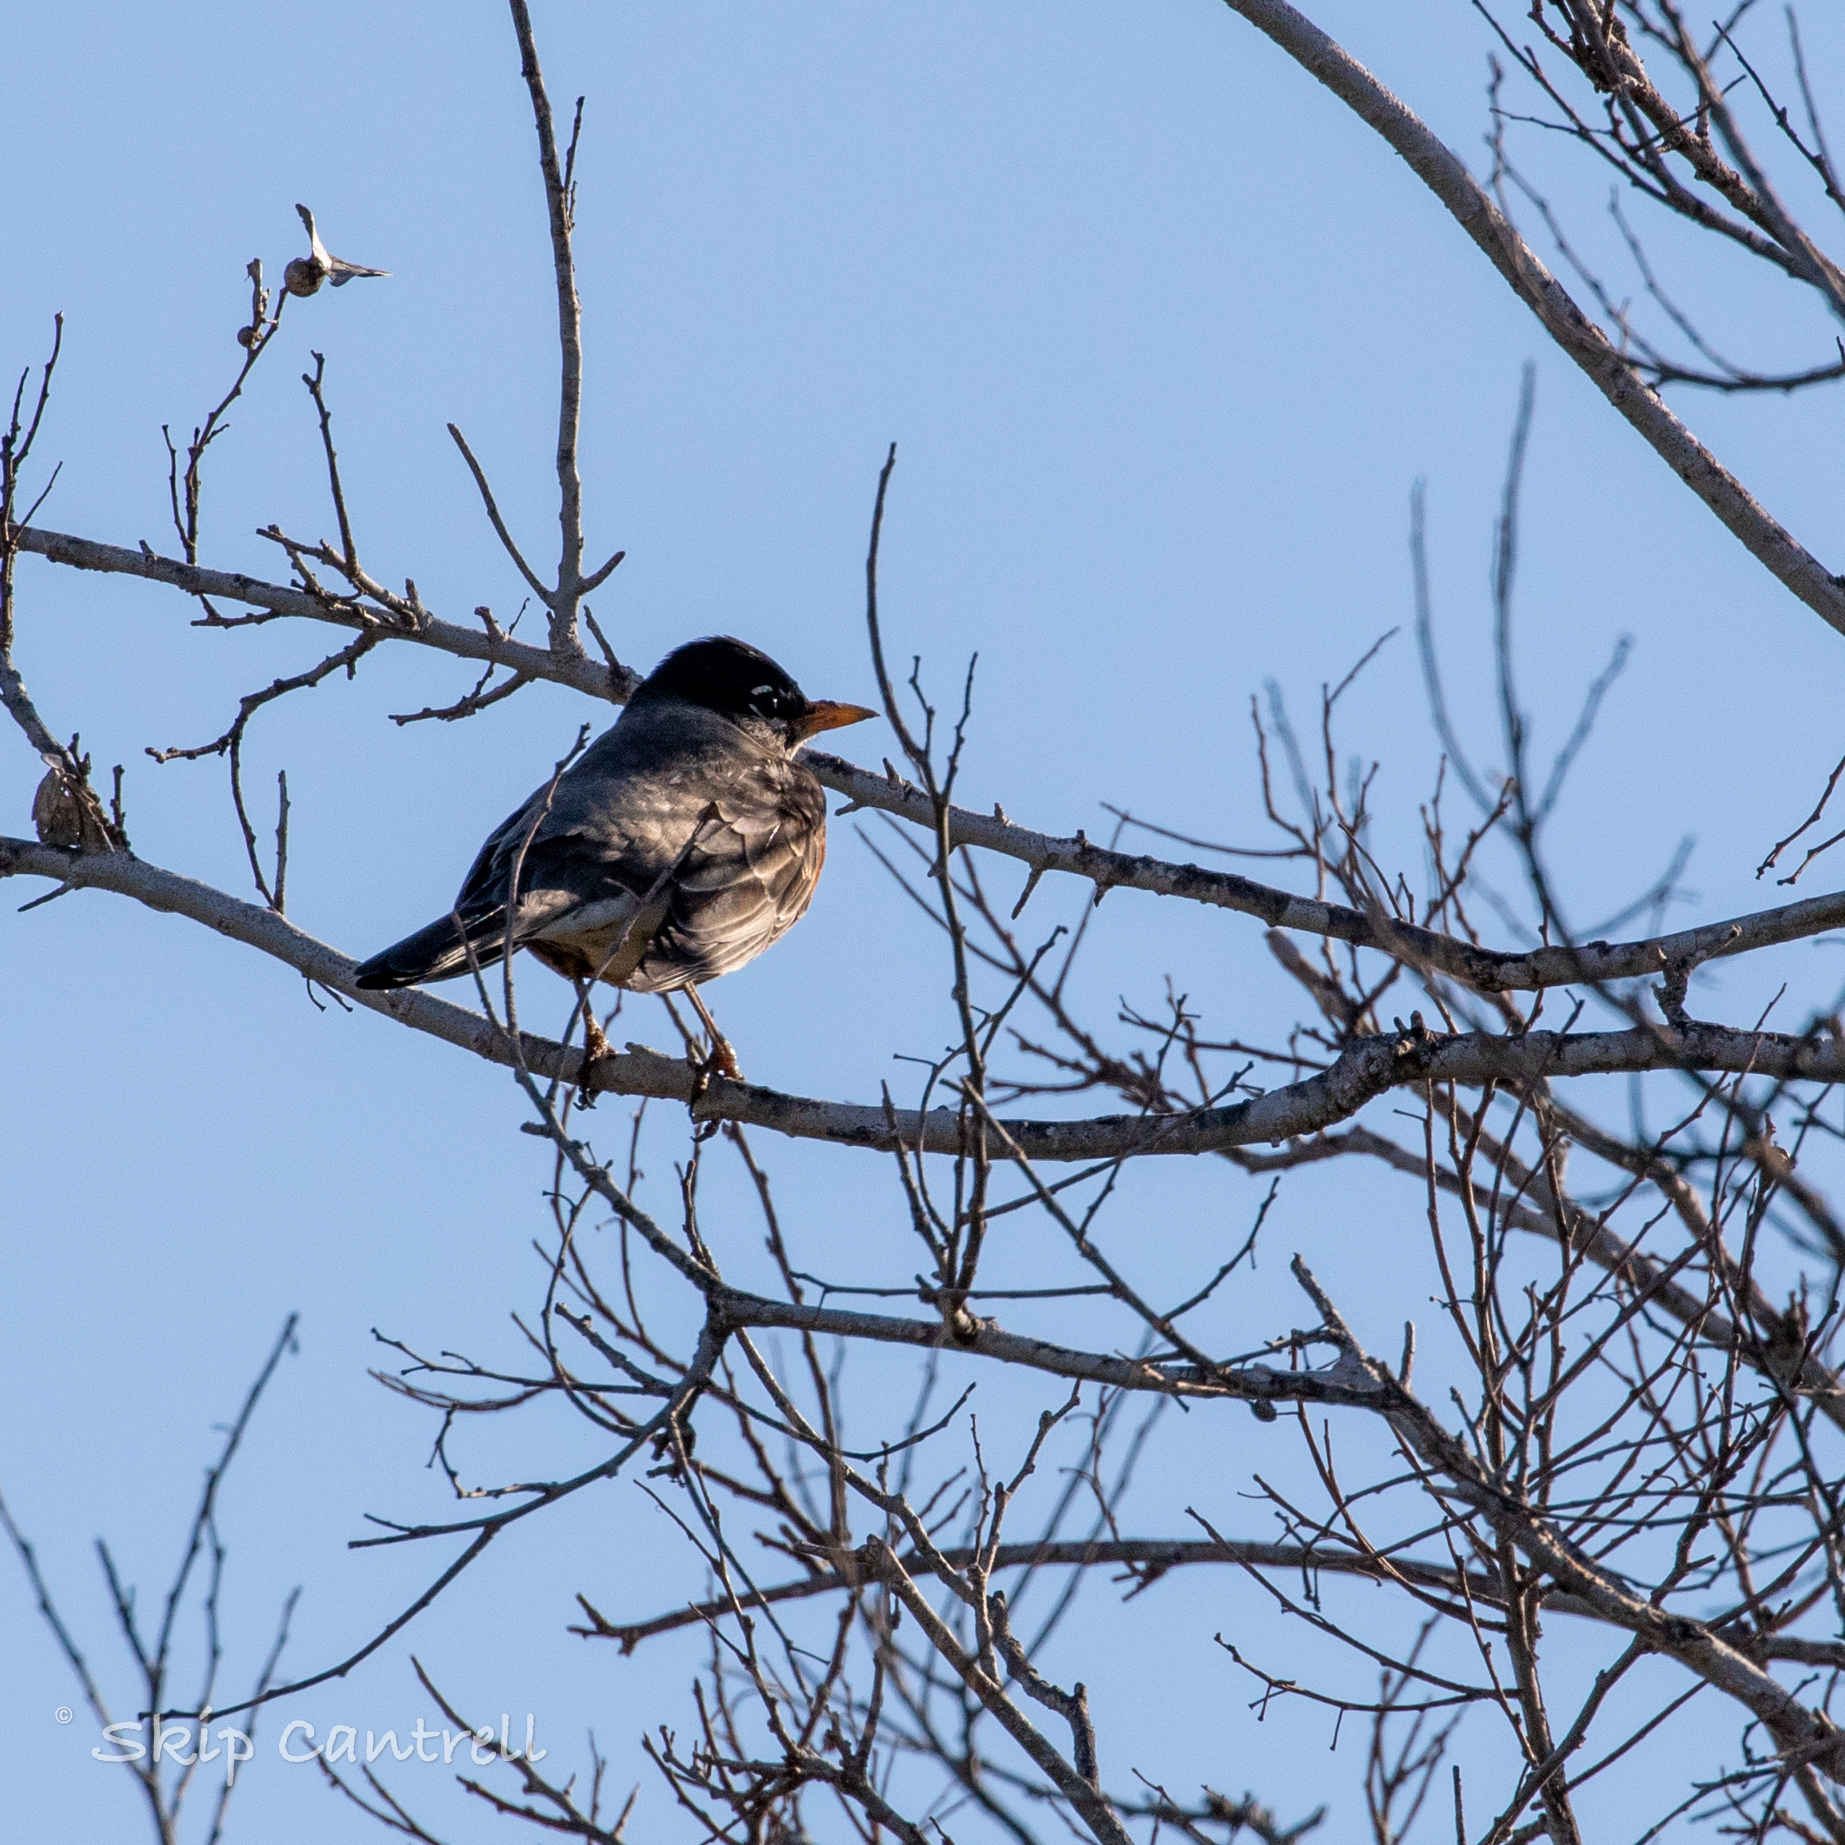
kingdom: Animalia
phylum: Chordata
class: Aves
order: Passeriformes
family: Turdidae
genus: Turdus
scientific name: Turdus migratorius
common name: American robin
